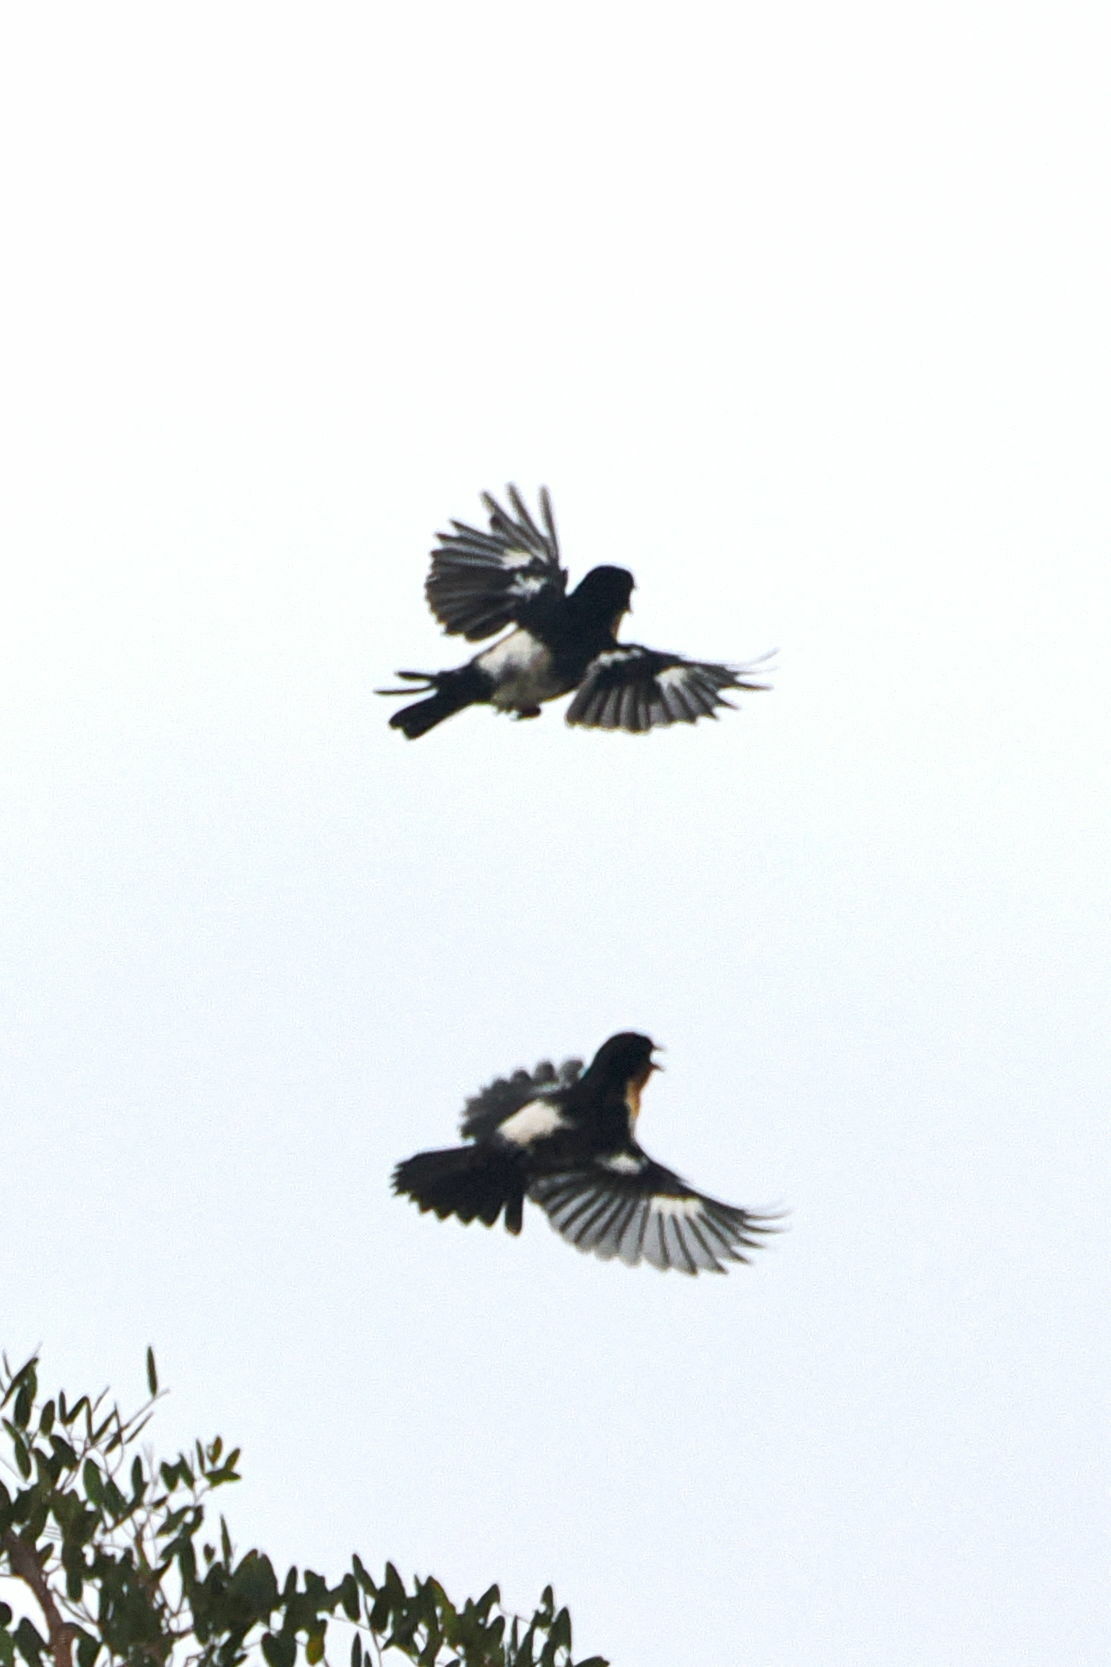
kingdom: Animalia
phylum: Chordata
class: Aves
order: Passeriformes
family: Thraupidae
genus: Cypsnagra
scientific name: Cypsnagra hirundinacea
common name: White-rumped tanager
